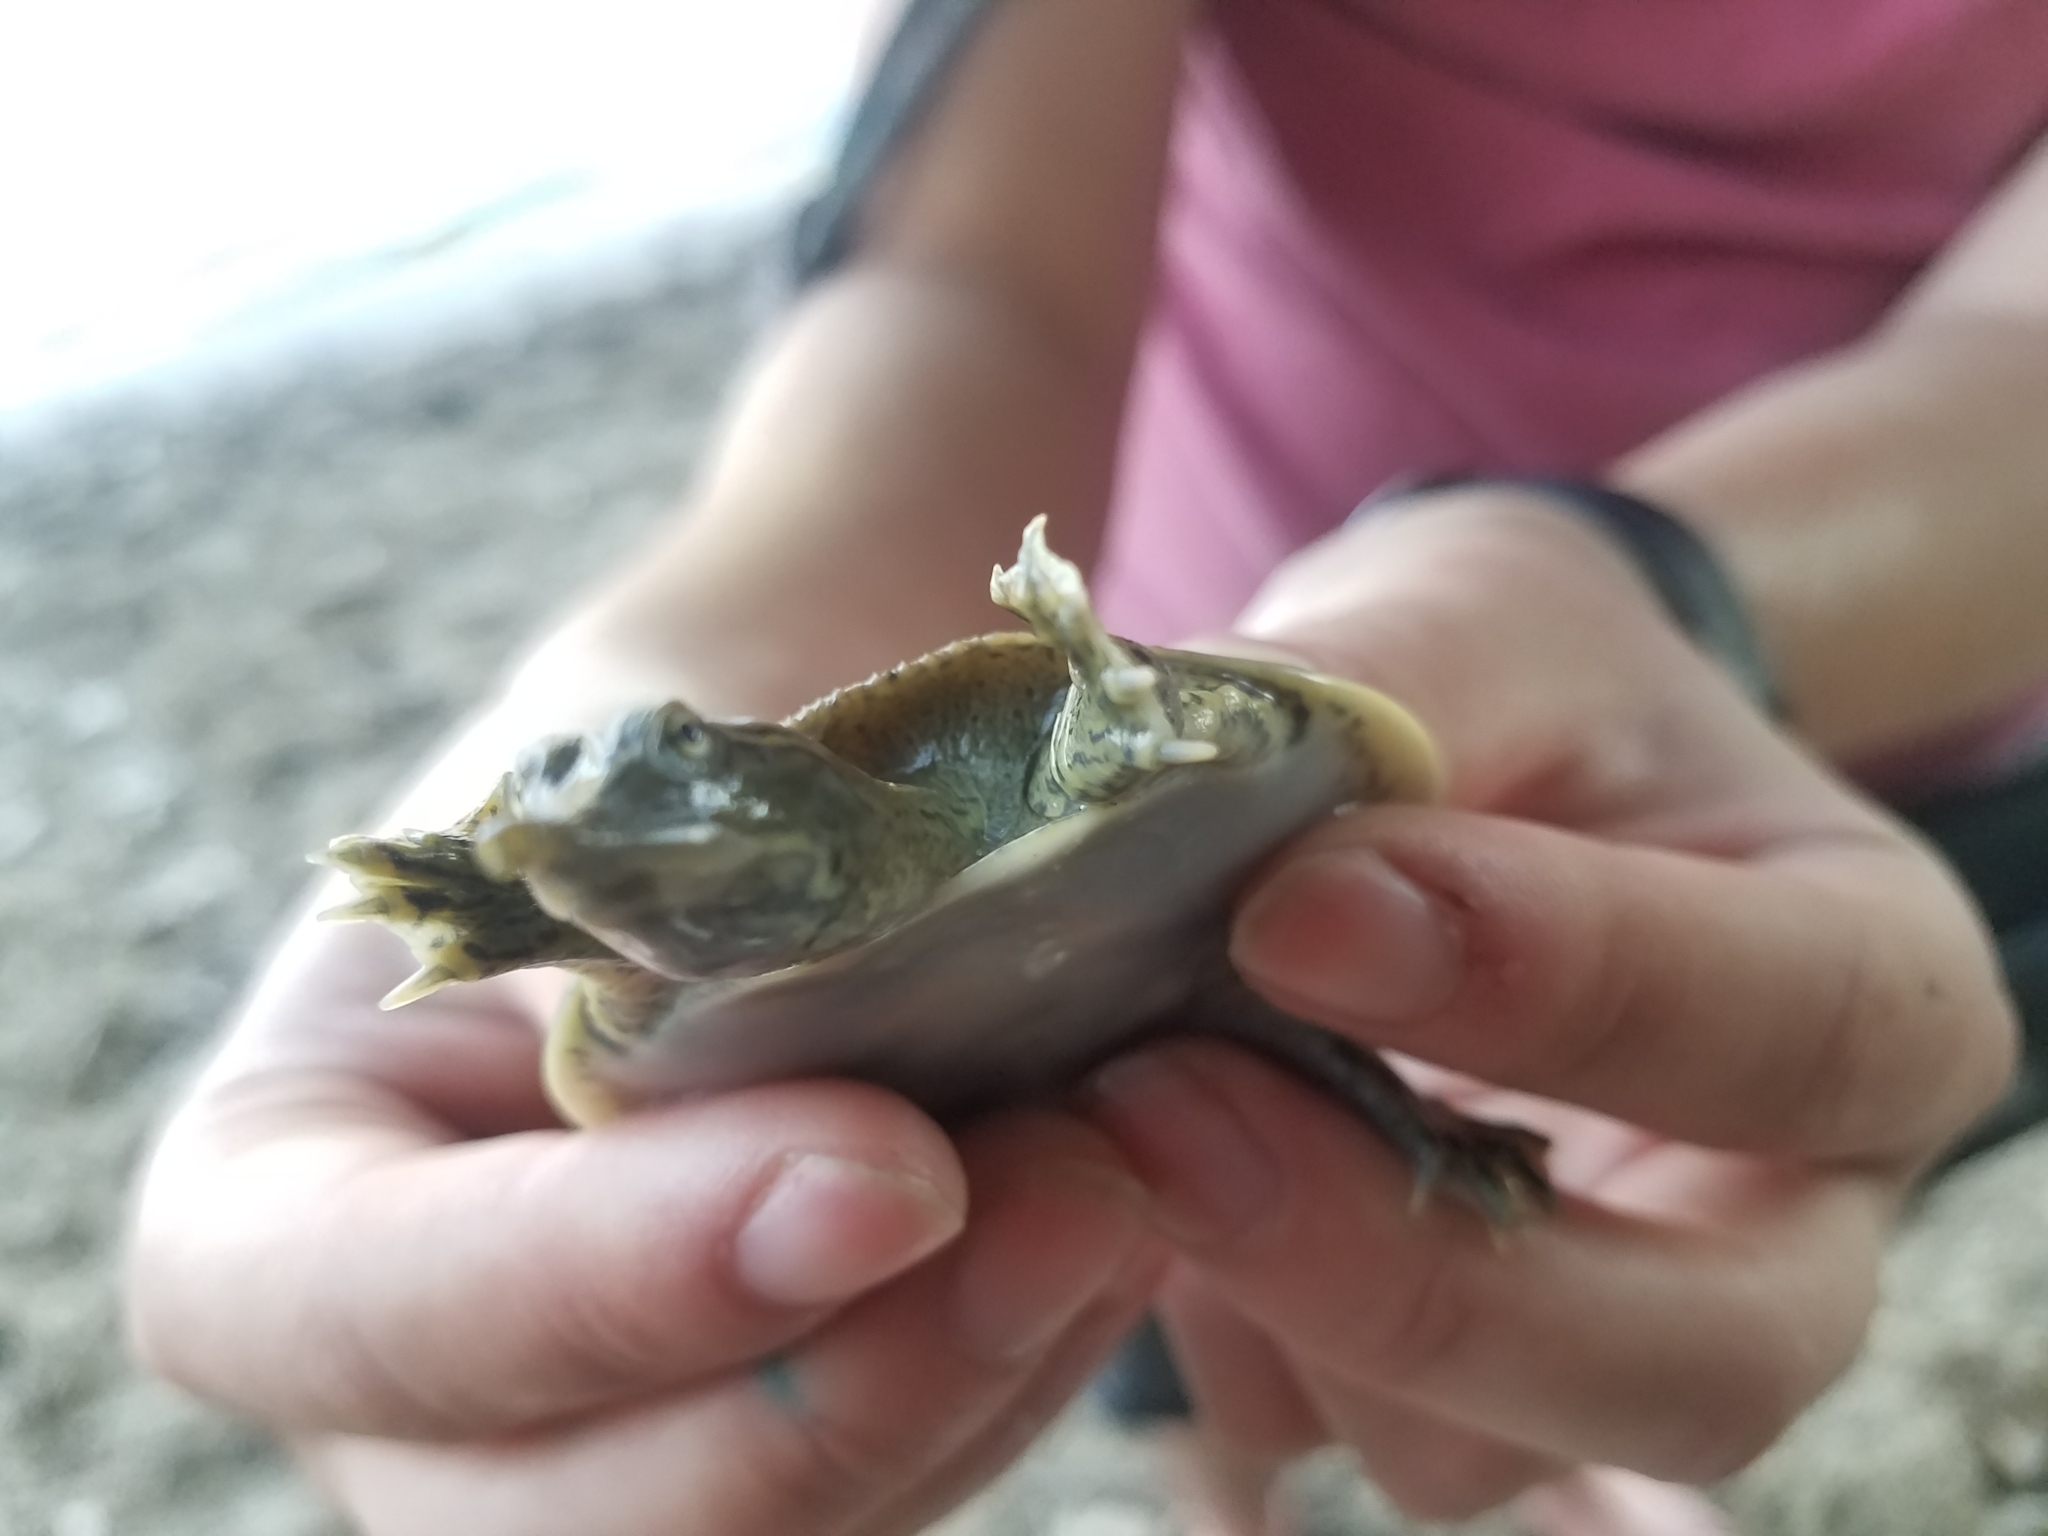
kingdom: Animalia
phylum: Chordata
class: Testudines
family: Trionychidae
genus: Apalone
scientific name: Apalone spinifera
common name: Spiny softshell turtle
